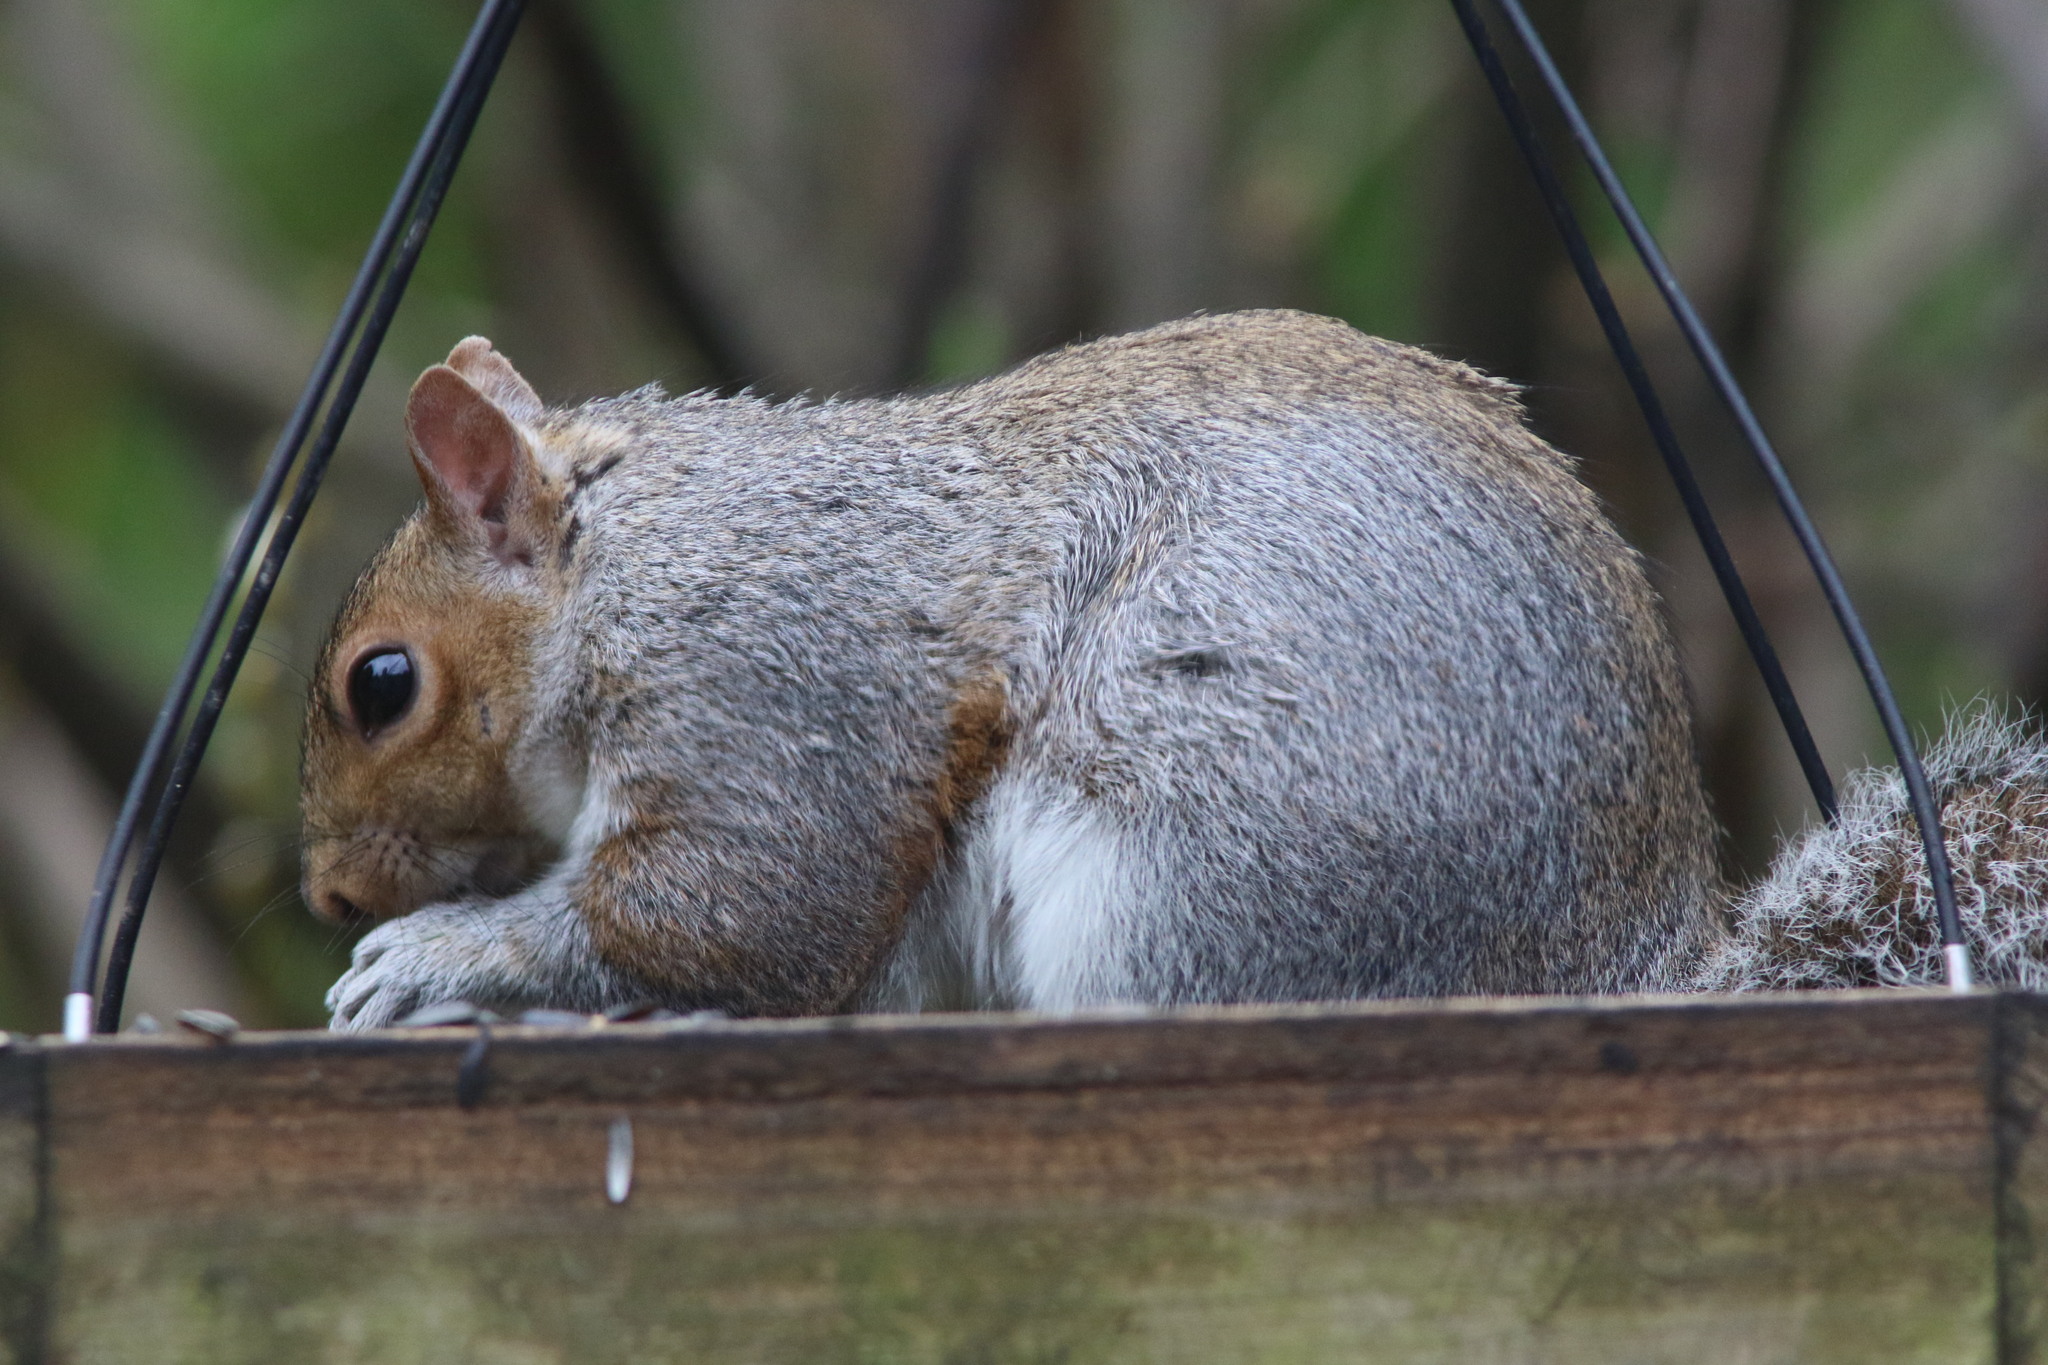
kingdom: Animalia
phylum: Chordata
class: Mammalia
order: Rodentia
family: Sciuridae
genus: Sciurus
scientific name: Sciurus carolinensis
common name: Eastern gray squirrel
